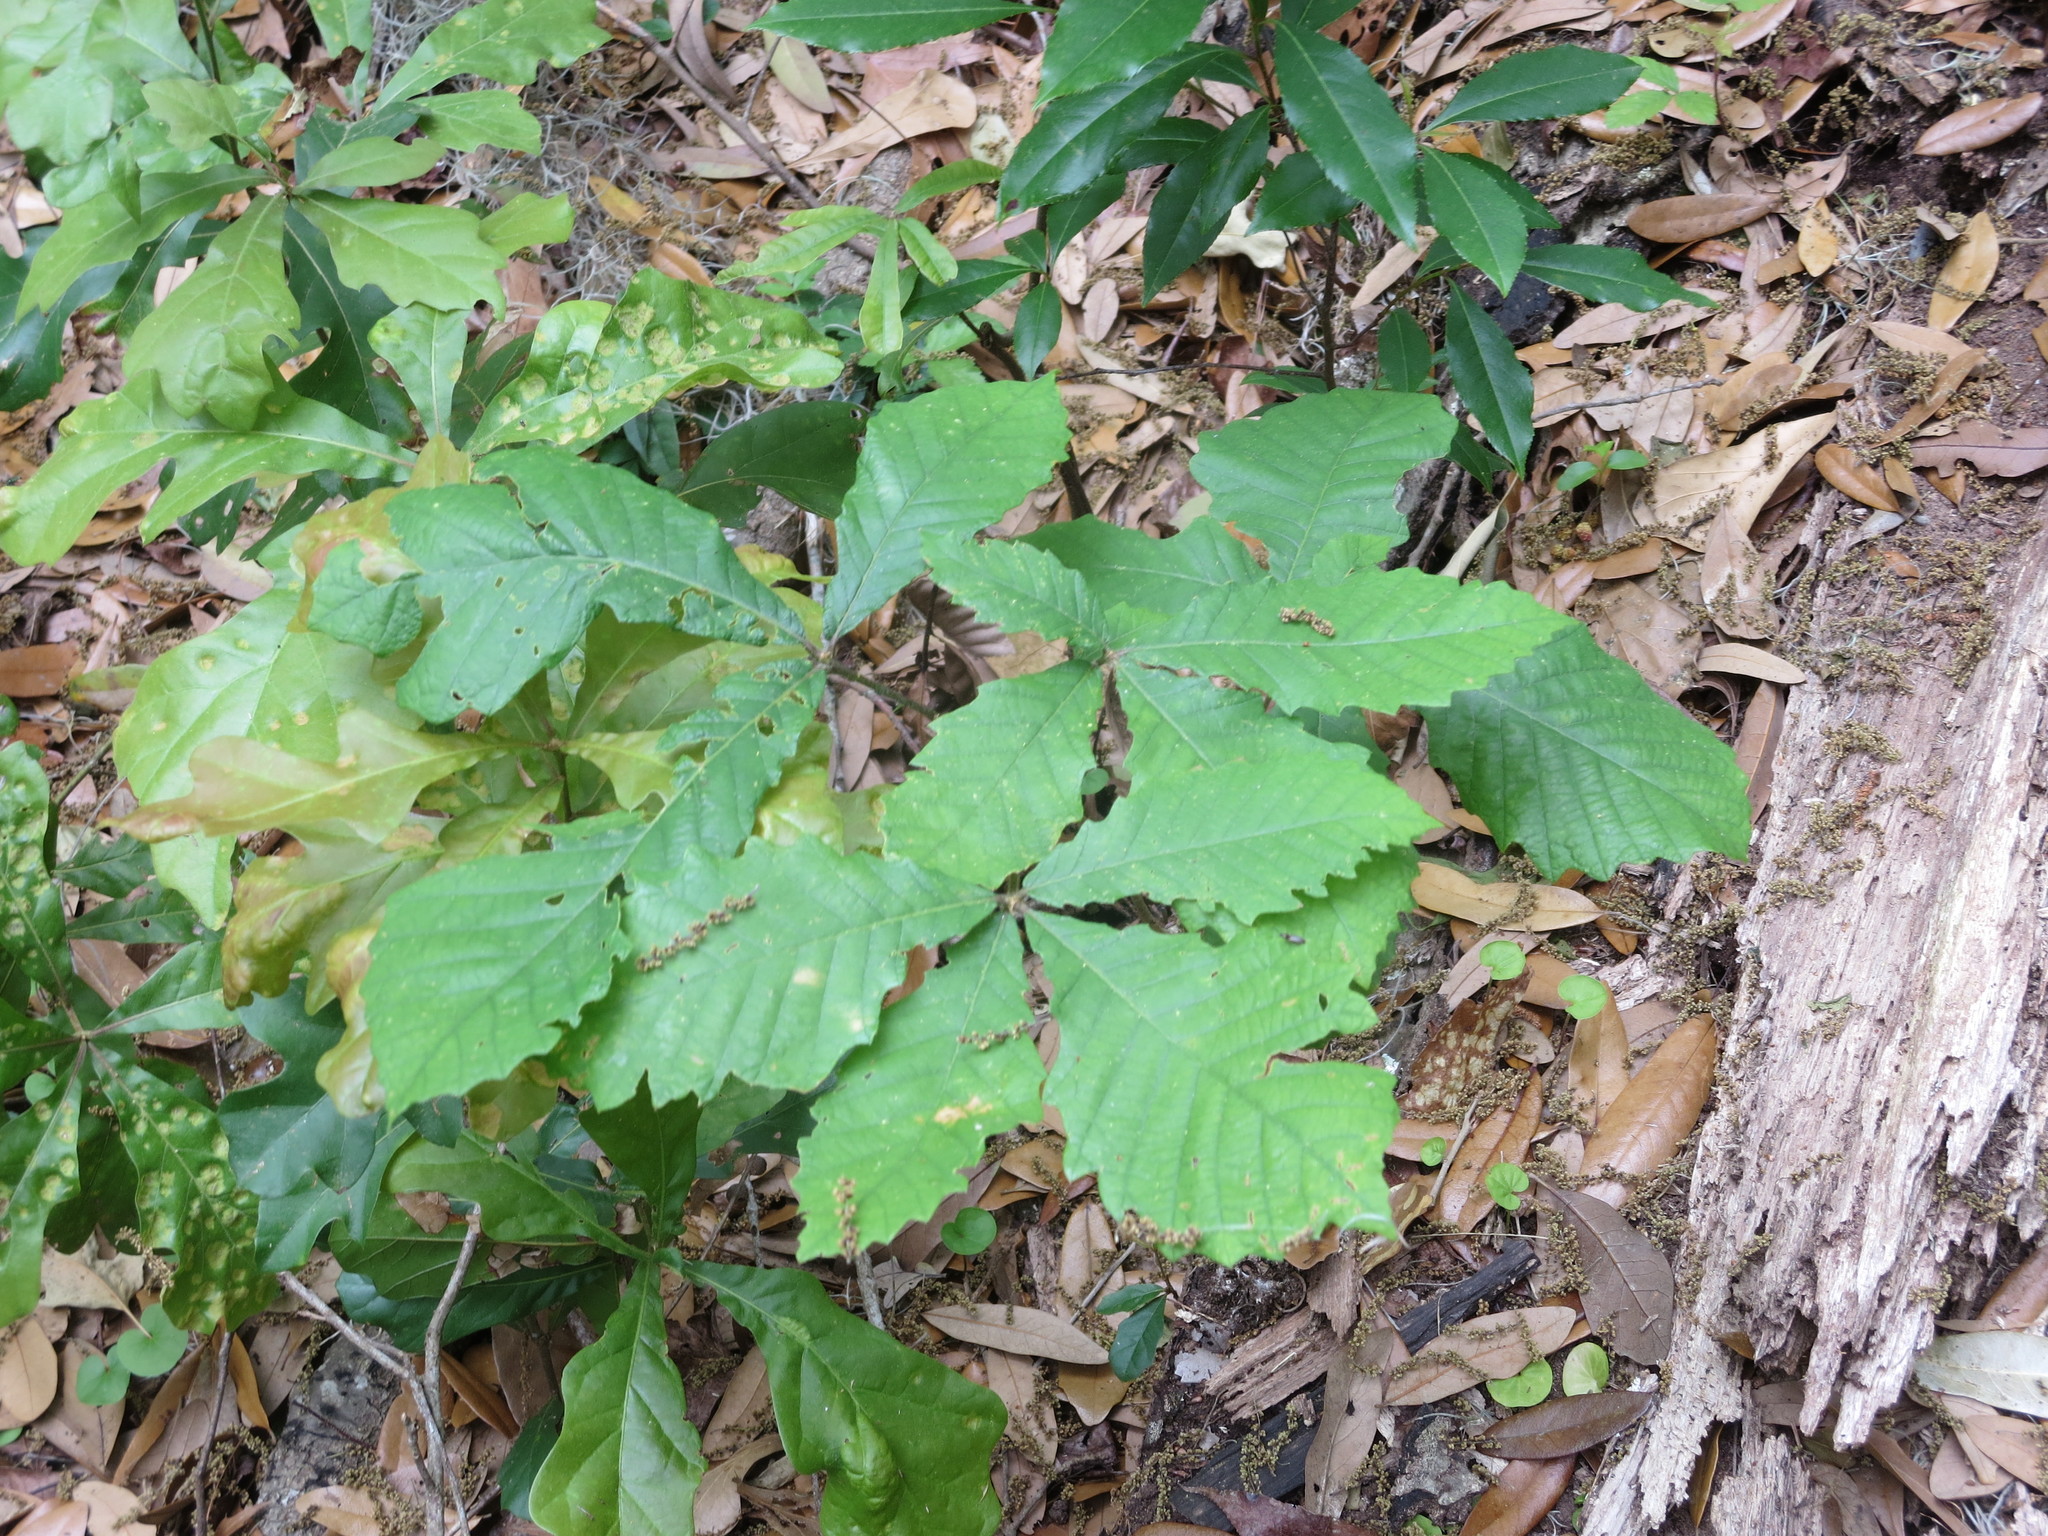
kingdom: Plantae
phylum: Tracheophyta
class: Magnoliopsida
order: Fagales
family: Fagaceae
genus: Quercus
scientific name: Quercus michauxii
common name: Swamp chestnut oak
